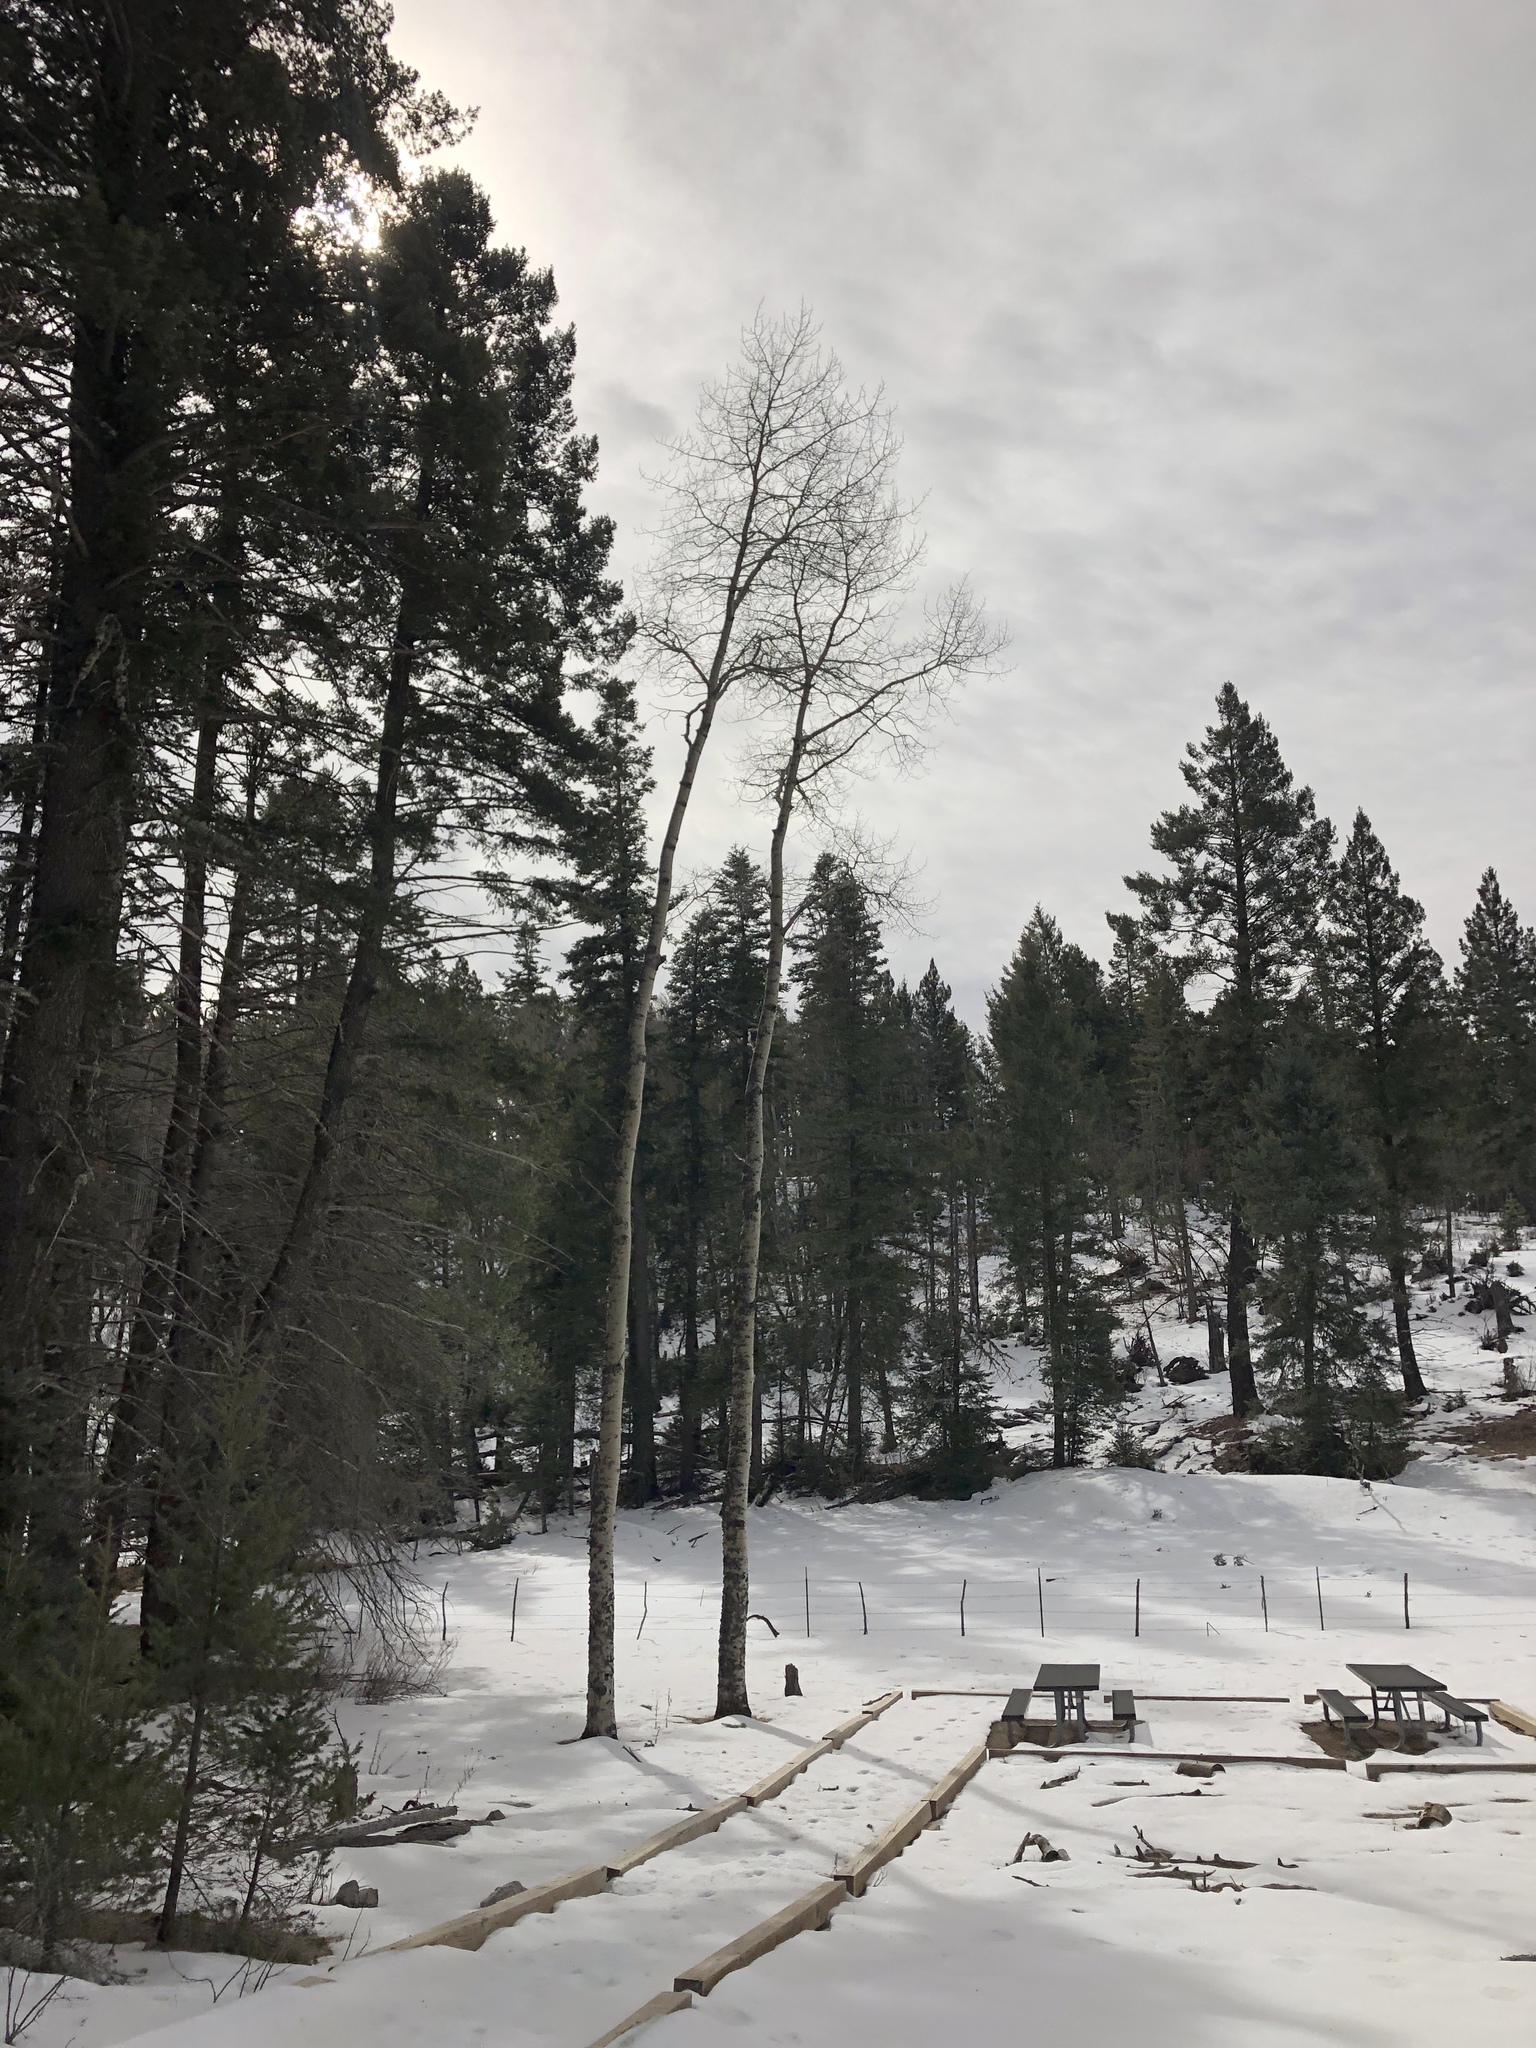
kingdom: Plantae
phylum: Tracheophyta
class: Magnoliopsida
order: Malpighiales
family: Salicaceae
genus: Populus
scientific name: Populus tremuloides
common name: Quaking aspen
